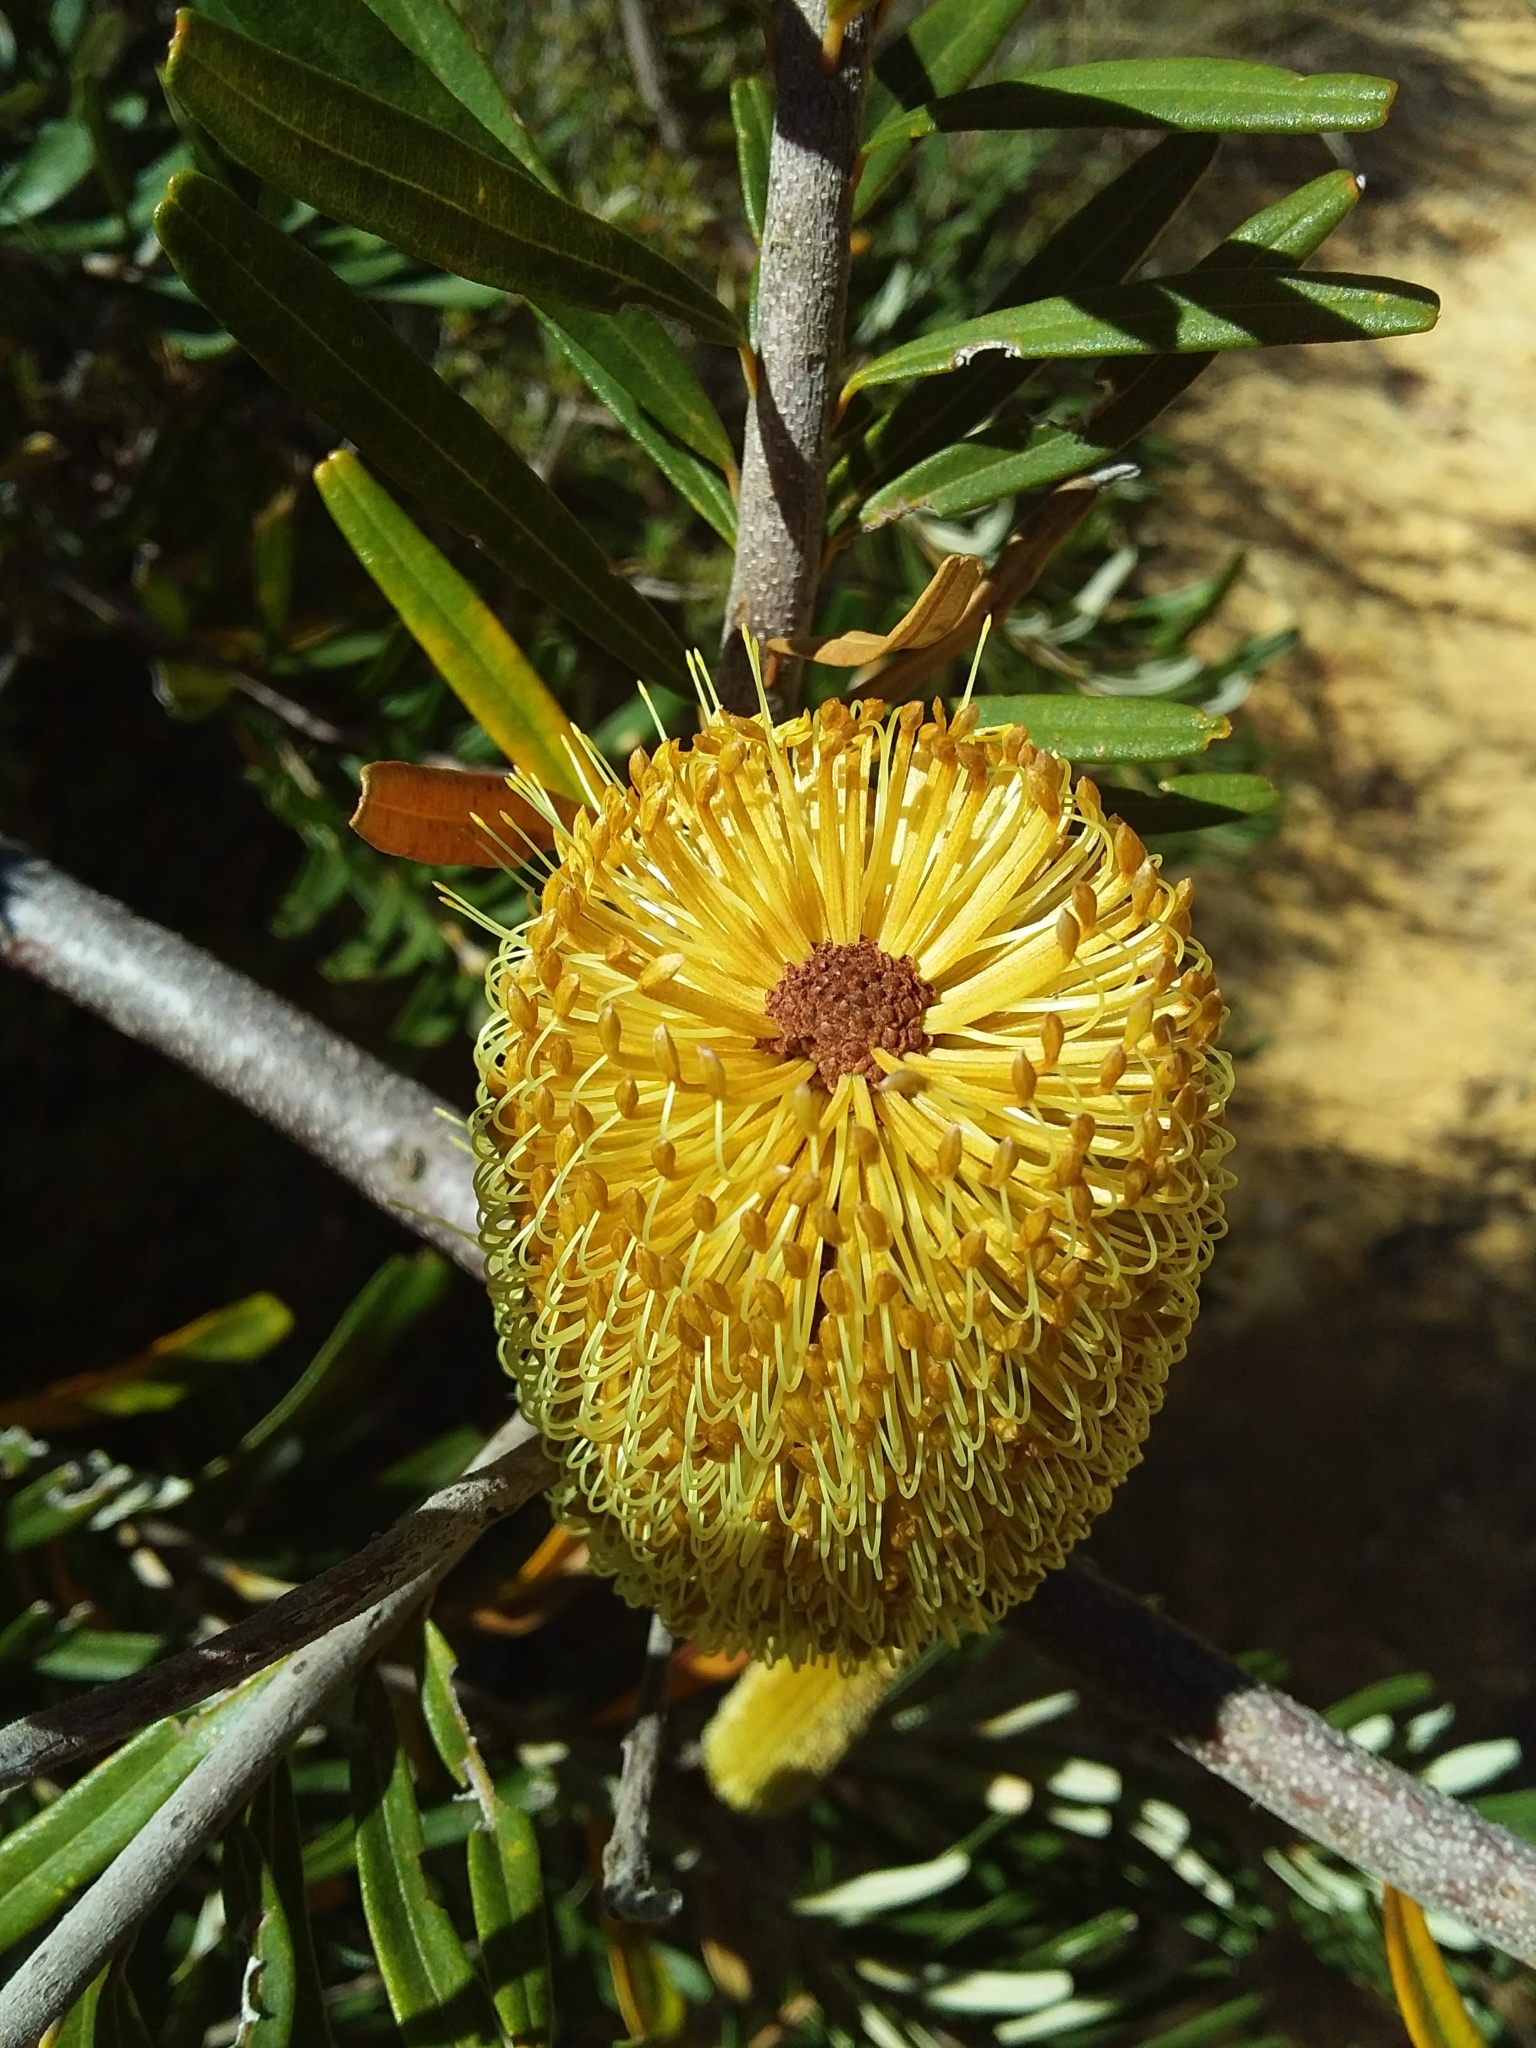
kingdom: Plantae
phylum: Tracheophyta
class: Magnoliopsida
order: Proteales
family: Proteaceae
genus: Banksia
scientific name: Banksia marginata
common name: Silver banksia
